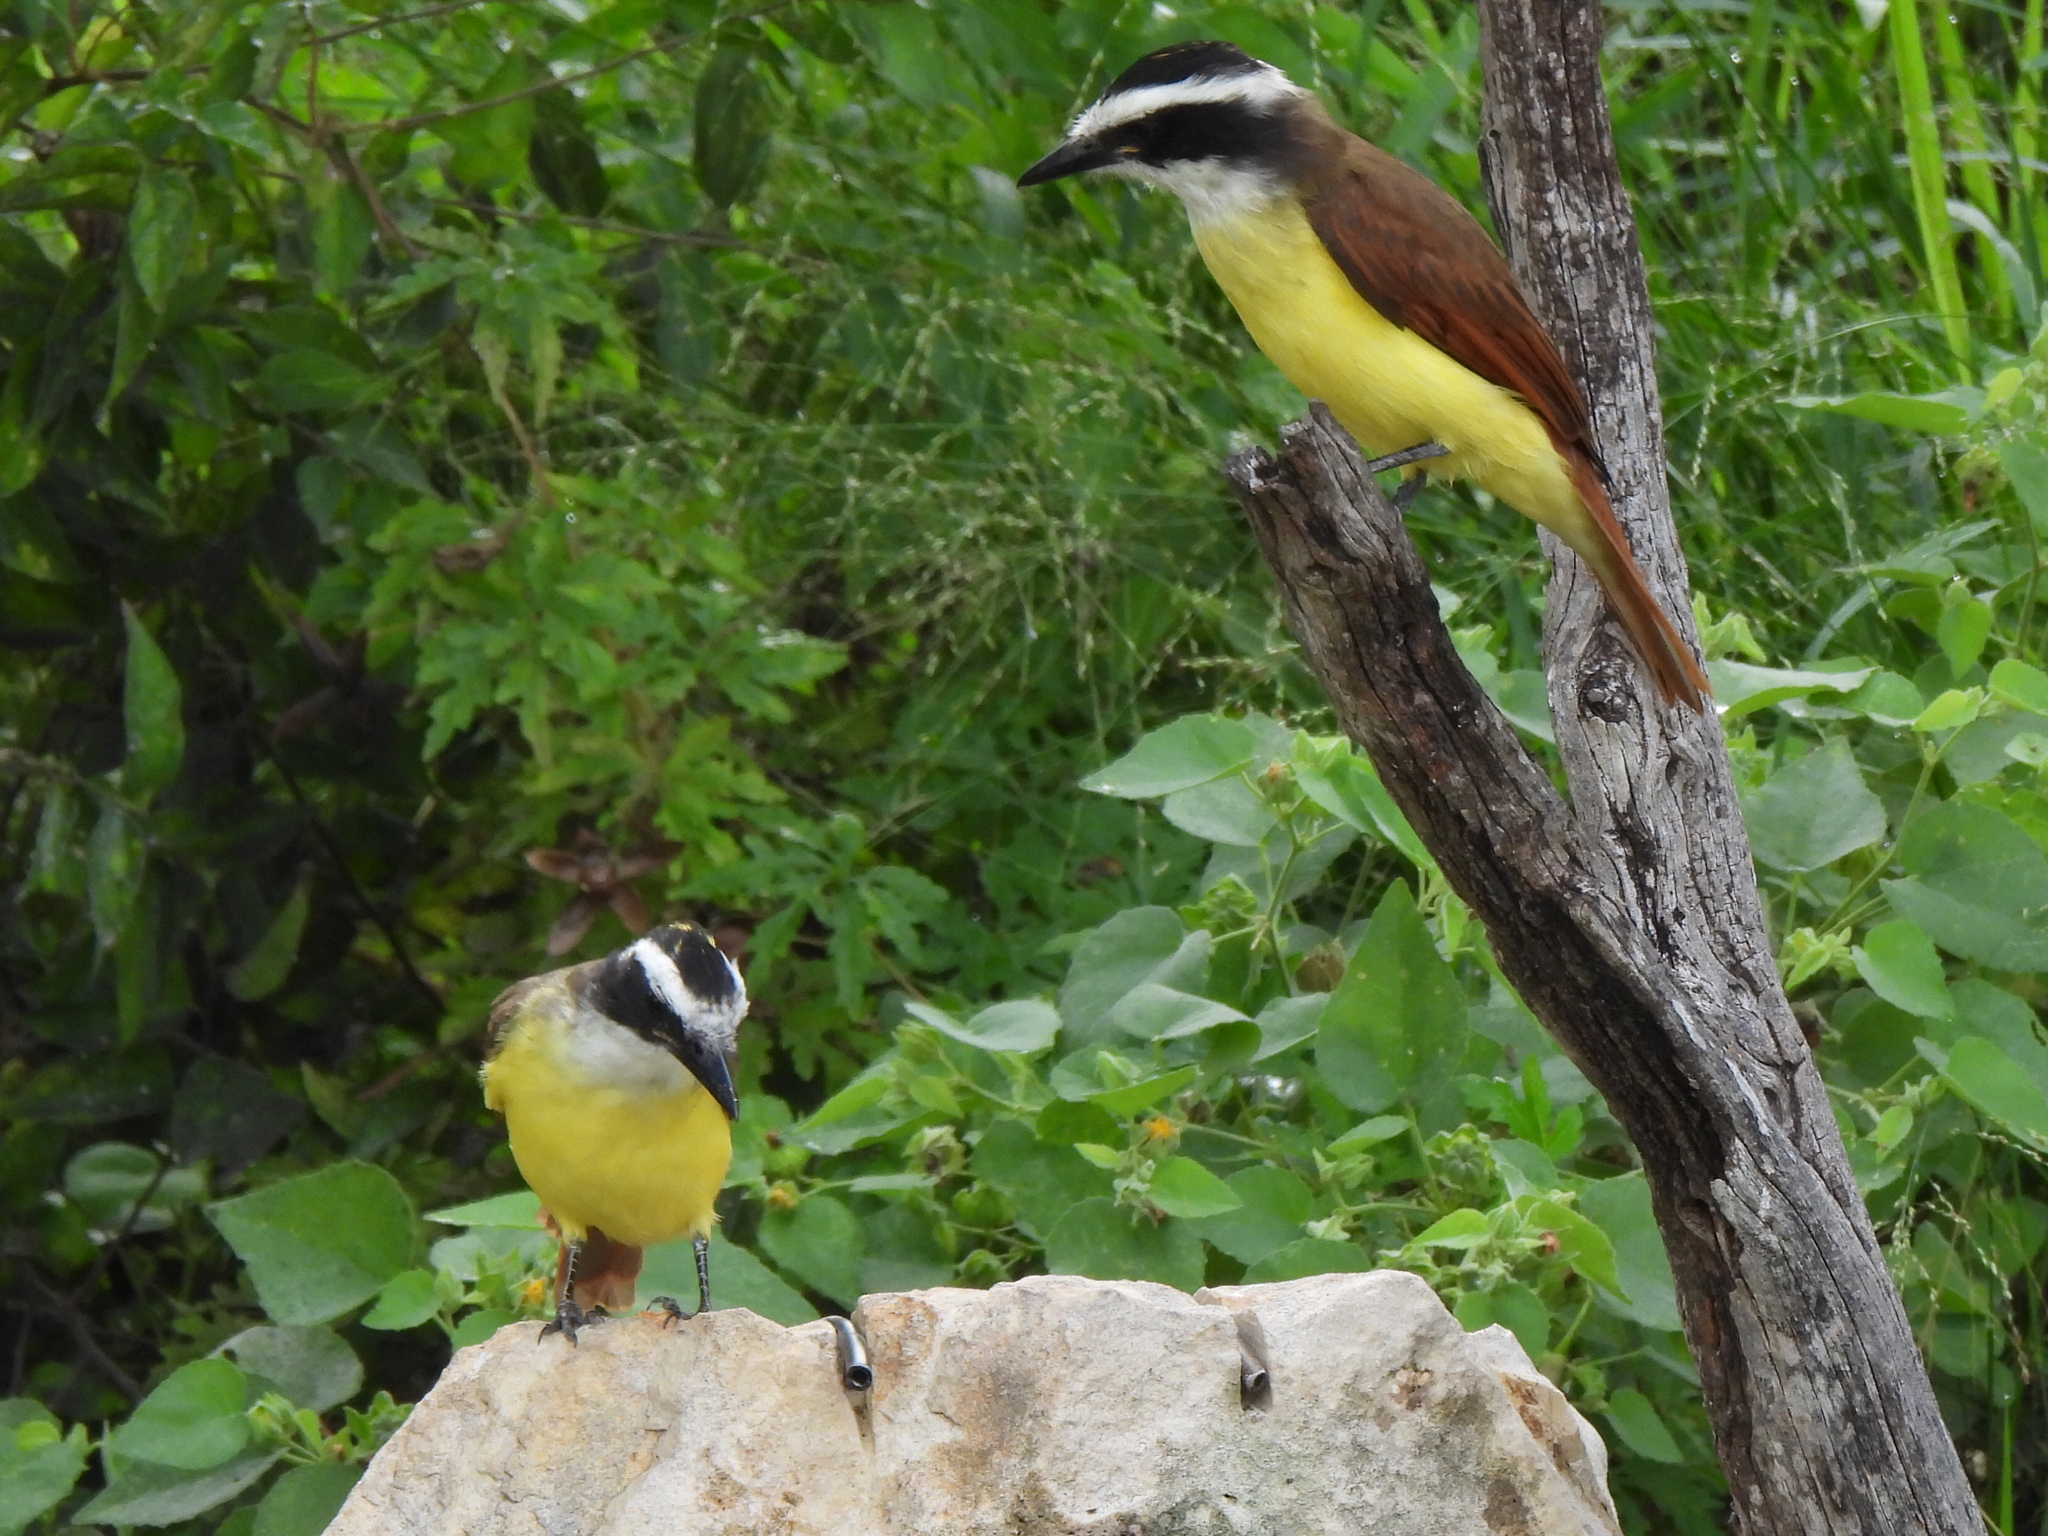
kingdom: Animalia
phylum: Chordata
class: Aves
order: Passeriformes
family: Tyrannidae
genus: Pitangus
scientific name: Pitangus sulphuratus
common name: Great kiskadee
